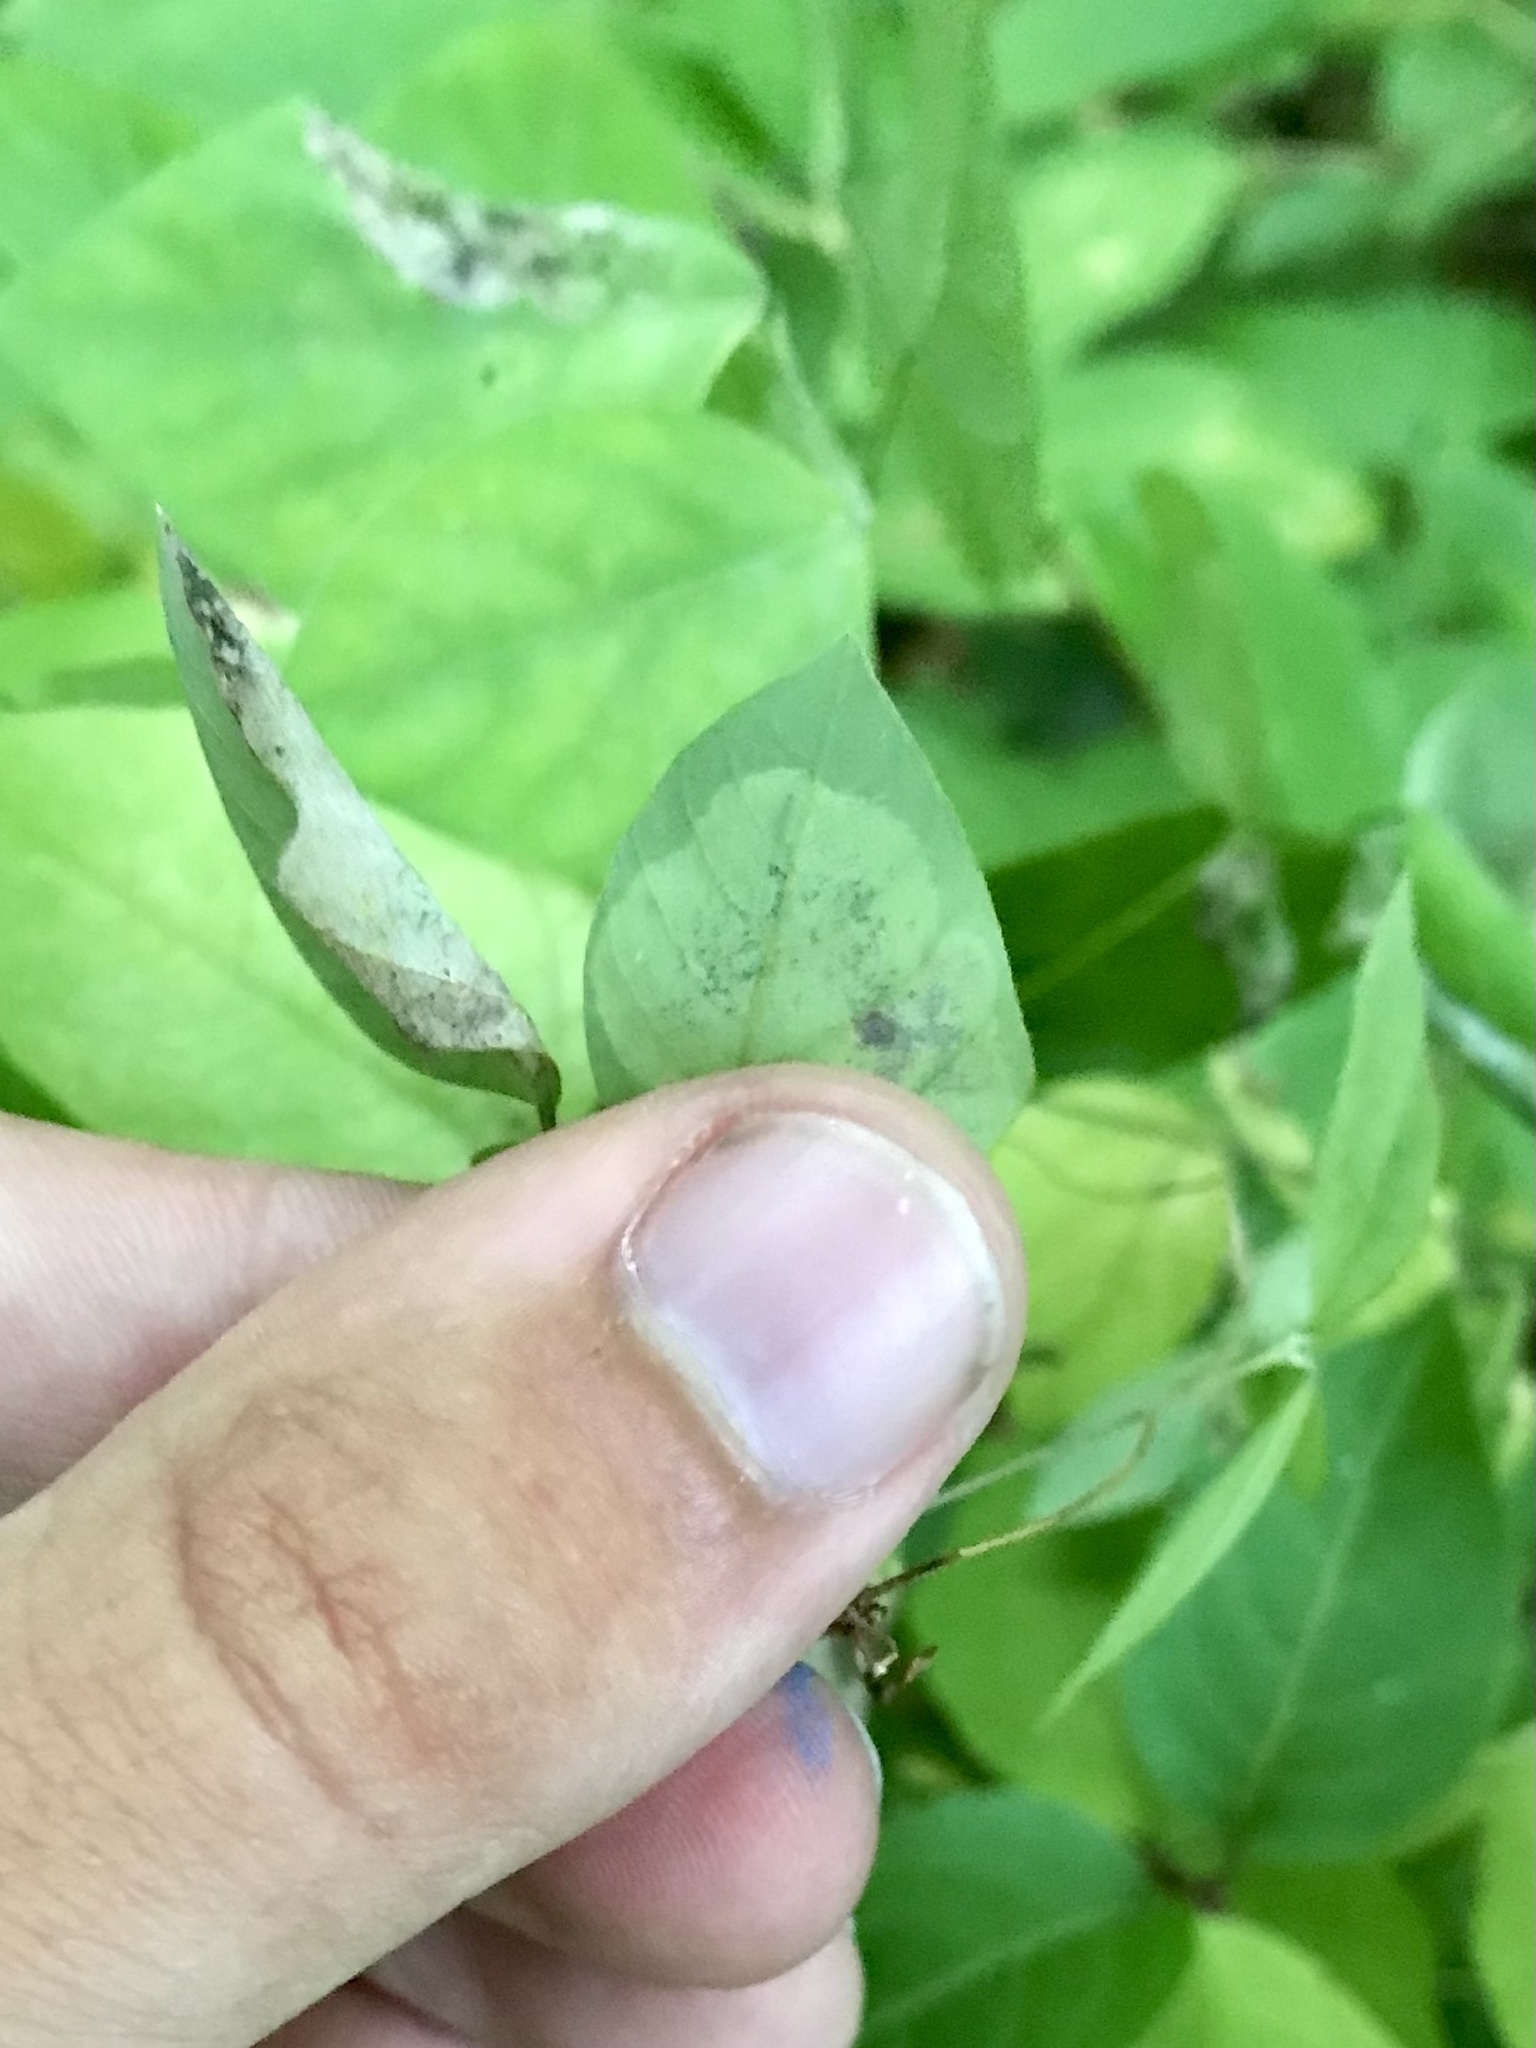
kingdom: Animalia
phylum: Arthropoda
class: Insecta
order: Lepidoptera
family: Gracillariidae
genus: Leucanthiza
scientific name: Leucanthiza amphicarpeaefoliella
